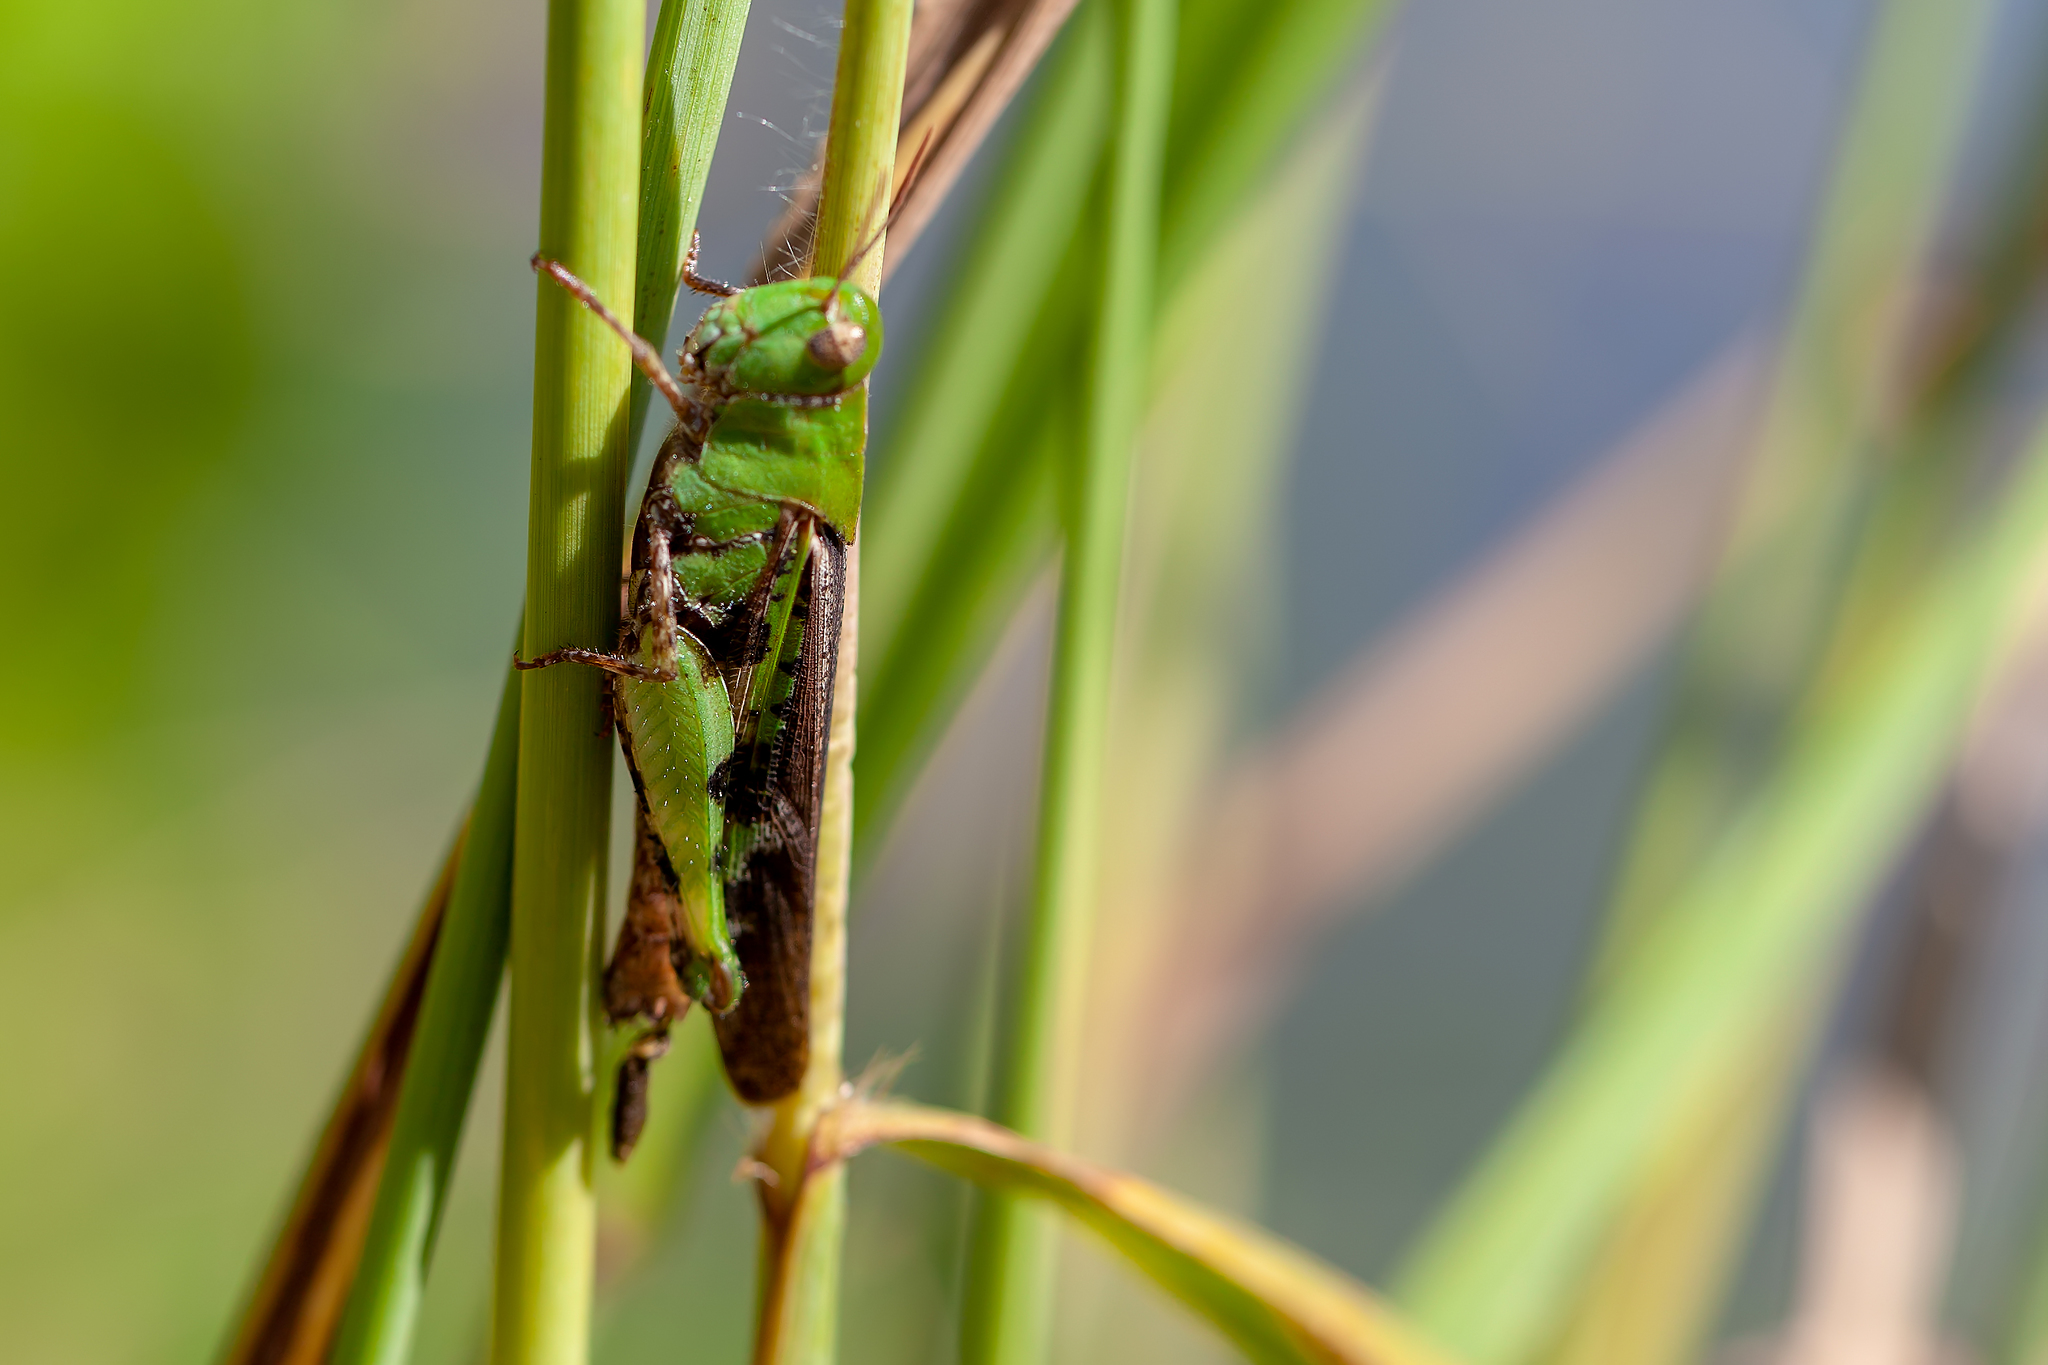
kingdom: Animalia
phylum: Arthropoda
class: Insecta
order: Orthoptera
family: Acrididae
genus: Chortophaga
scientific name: Chortophaga australior
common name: Southern green-striped grasshopper
